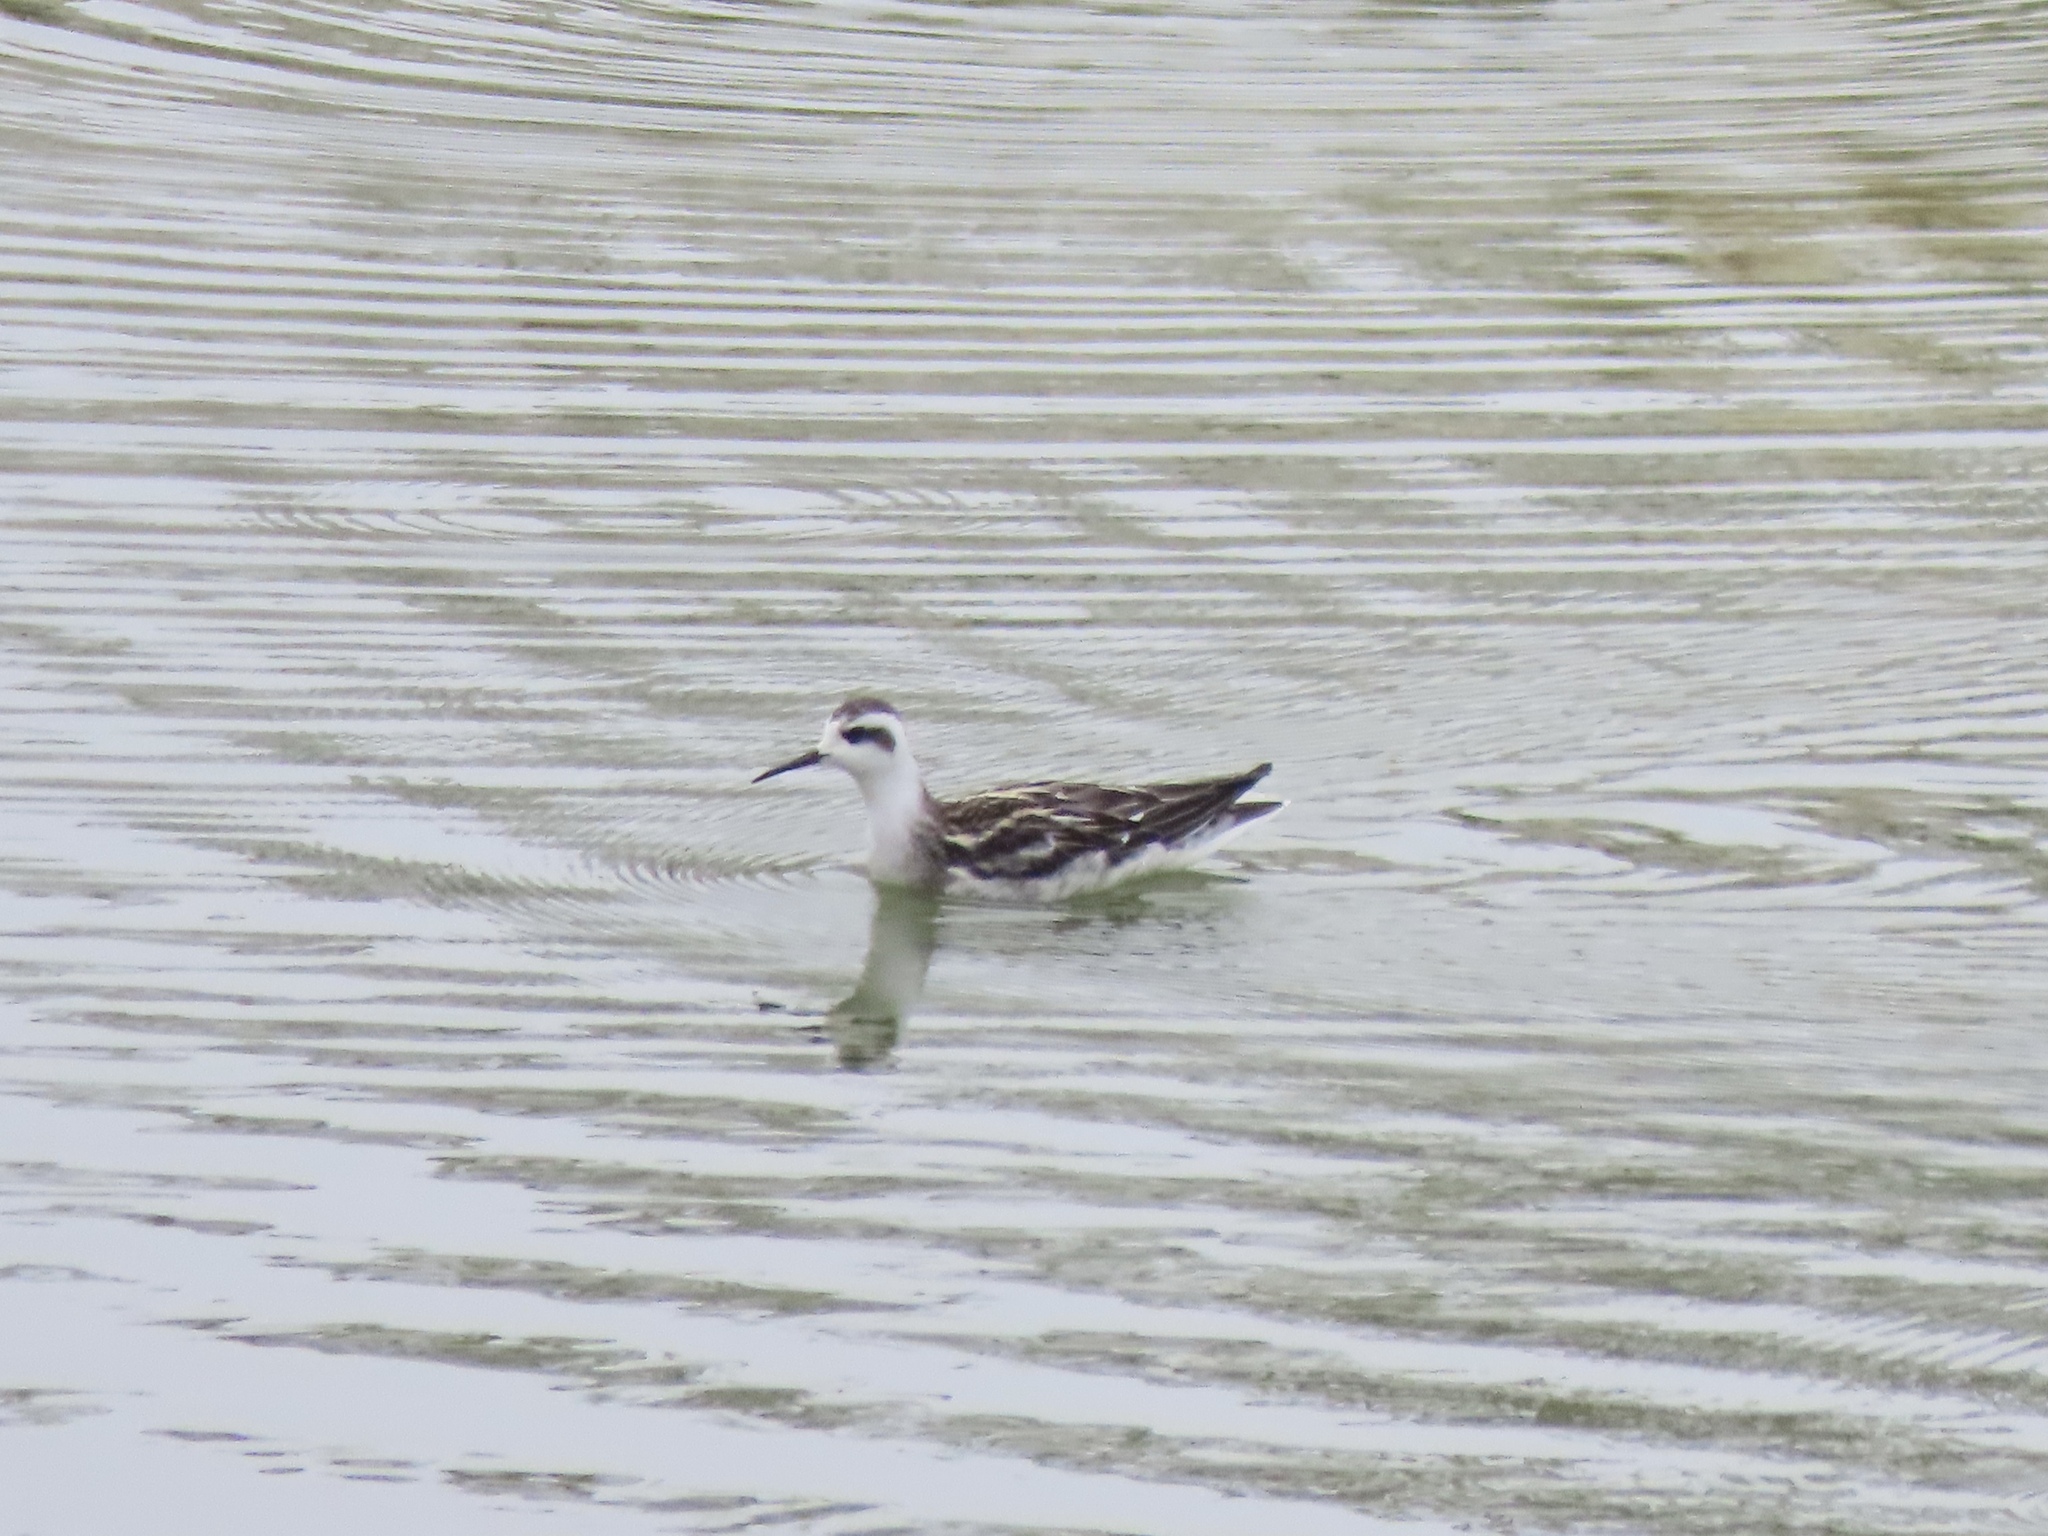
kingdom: Animalia
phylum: Chordata
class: Aves
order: Charadriiformes
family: Scolopacidae
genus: Phalaropus
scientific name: Phalaropus lobatus
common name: Red-necked phalarope
